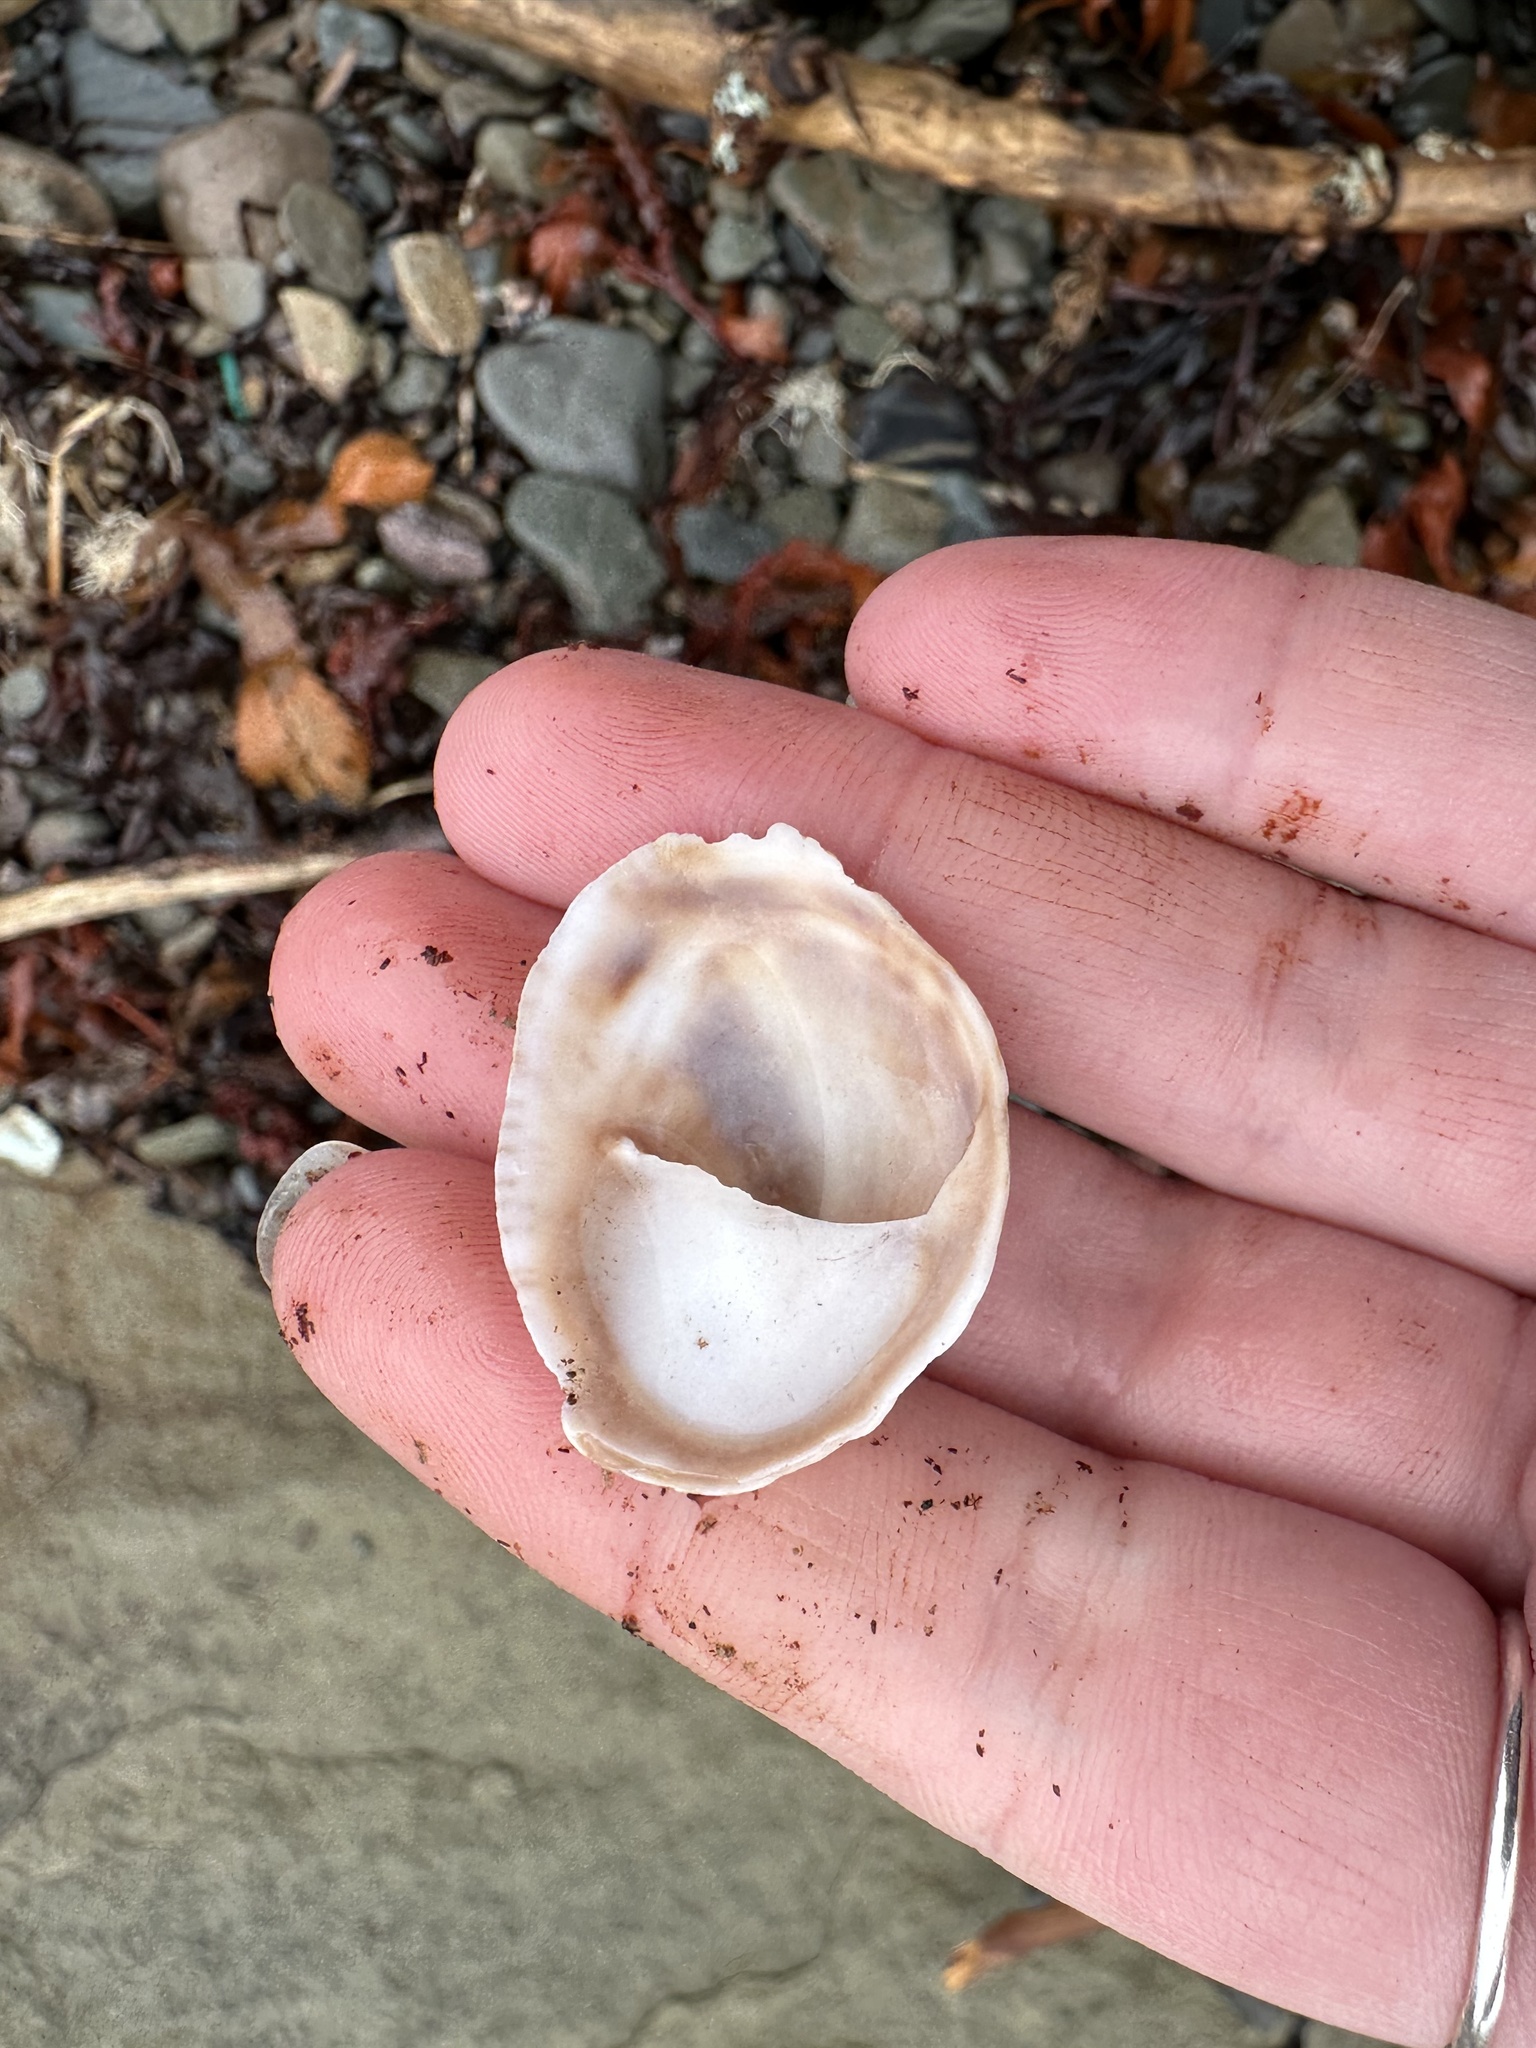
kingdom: Animalia
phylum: Mollusca
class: Gastropoda
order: Littorinimorpha
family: Calyptraeidae
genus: Crepidula
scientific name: Crepidula fornicata
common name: Slipper limpet
